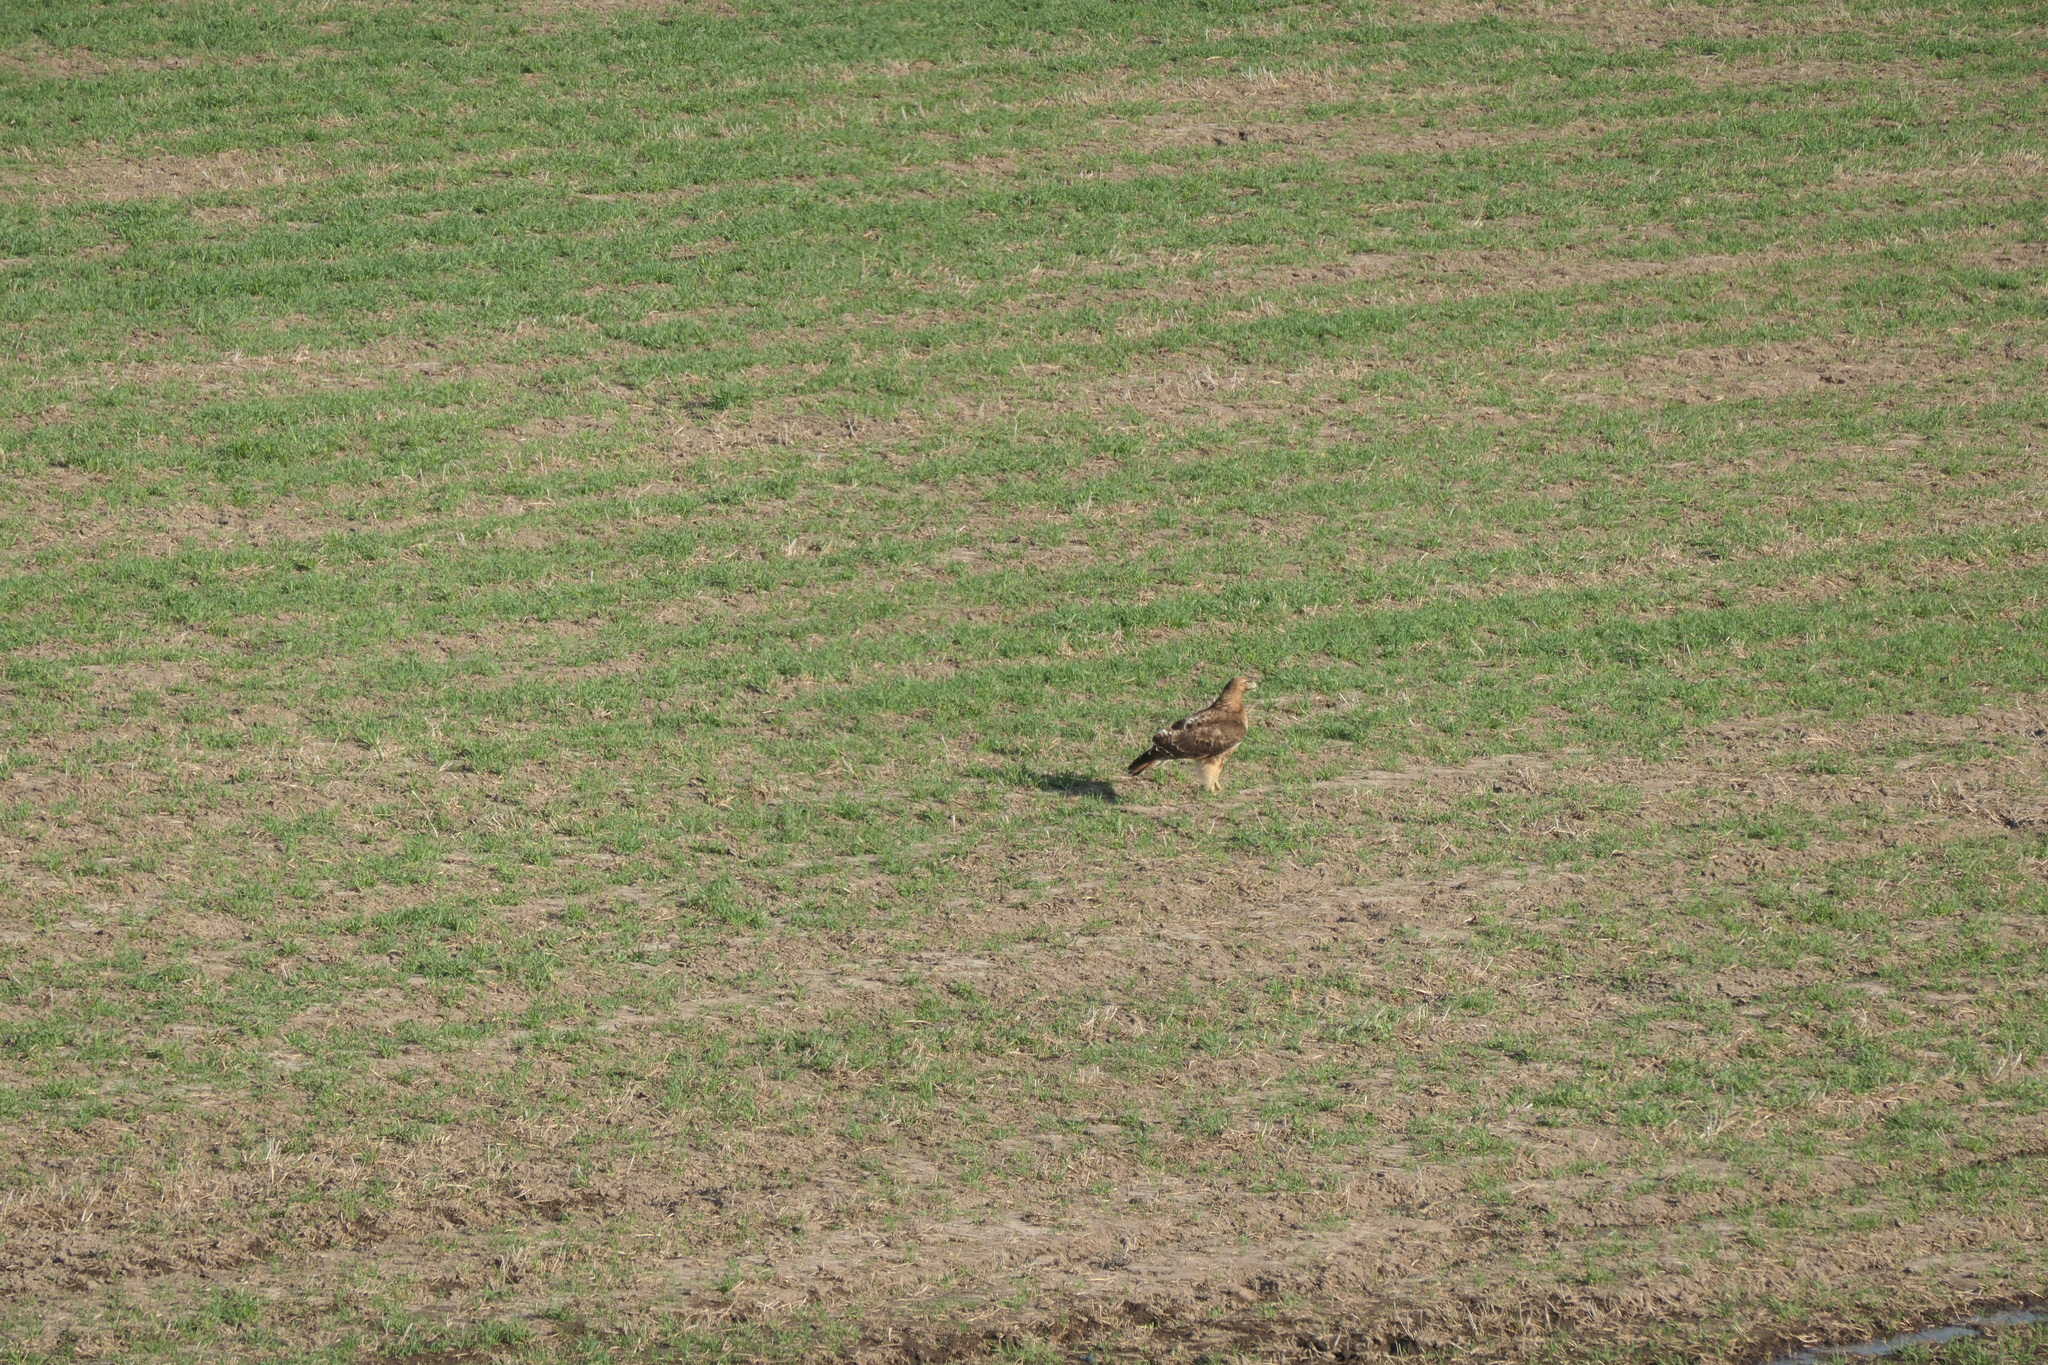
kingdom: Animalia
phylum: Chordata
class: Aves
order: Accipitriformes
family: Accipitridae
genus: Buteo
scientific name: Buteo jamaicensis
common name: Red-tailed hawk
